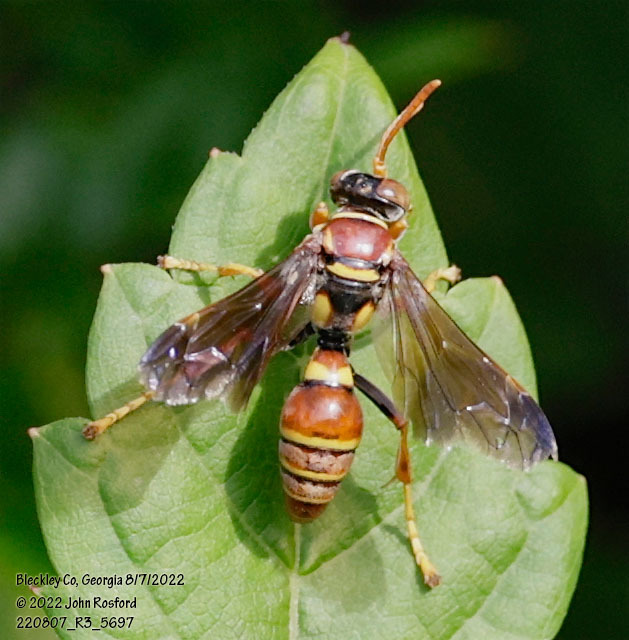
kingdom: Animalia
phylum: Arthropoda
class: Insecta
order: Hymenoptera
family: Crabronidae
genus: Saygorytes
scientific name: Saygorytes phaleratus
